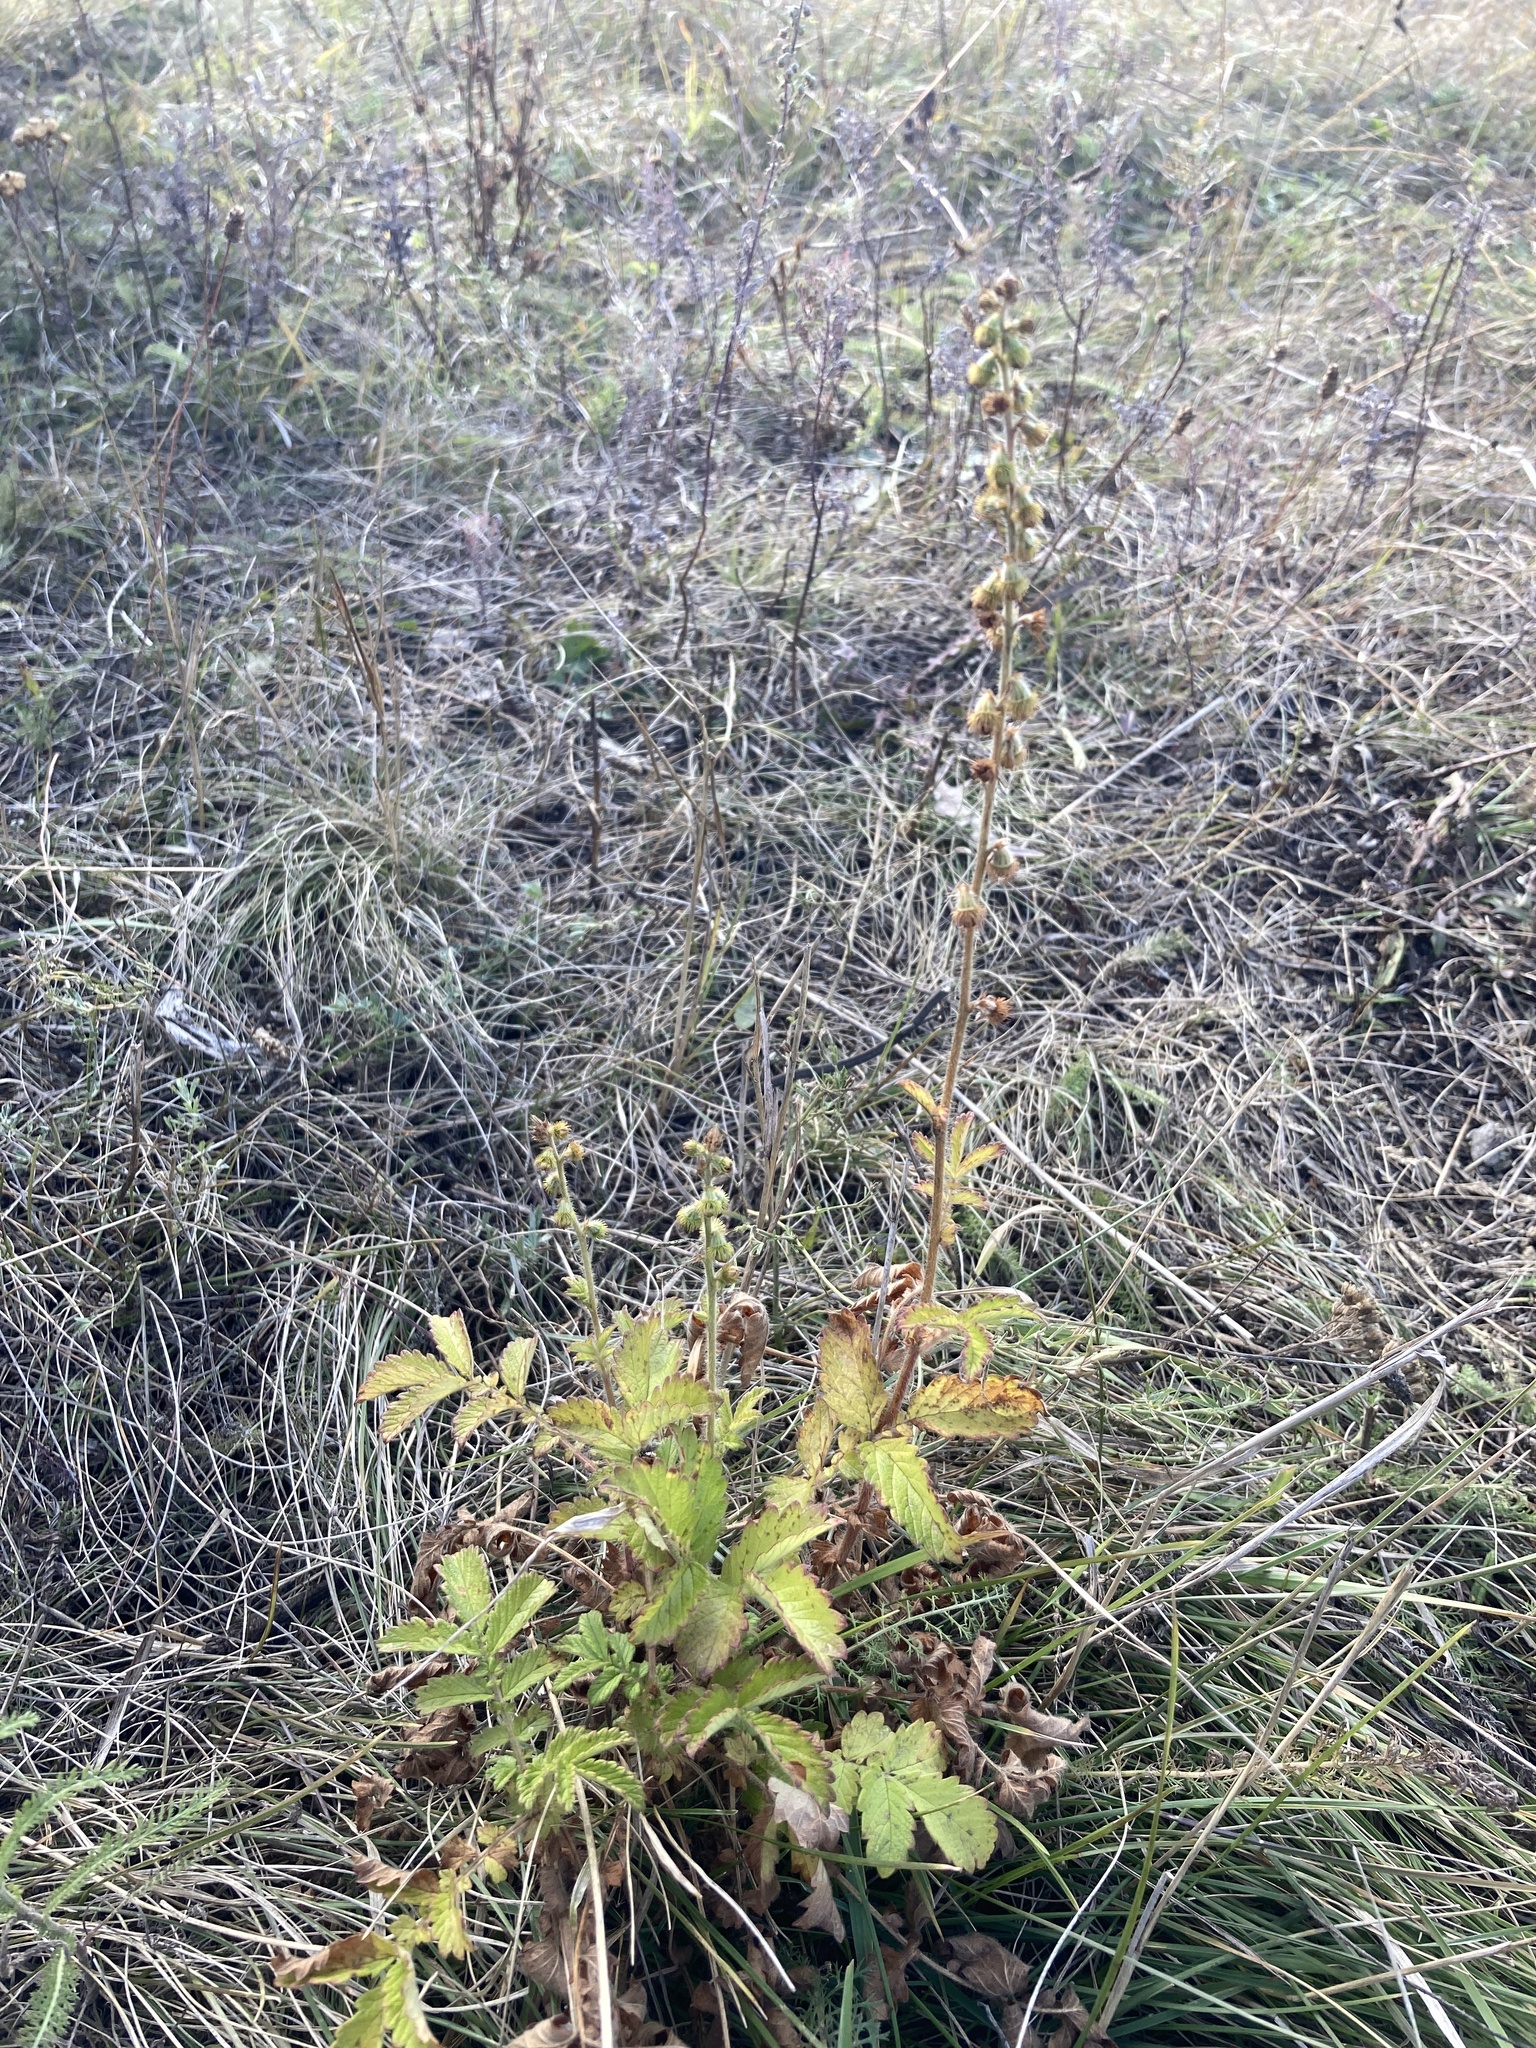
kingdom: Plantae
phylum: Tracheophyta
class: Magnoliopsida
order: Rosales
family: Rosaceae
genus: Agrimonia
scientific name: Agrimonia eupatoria
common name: Agrimony
